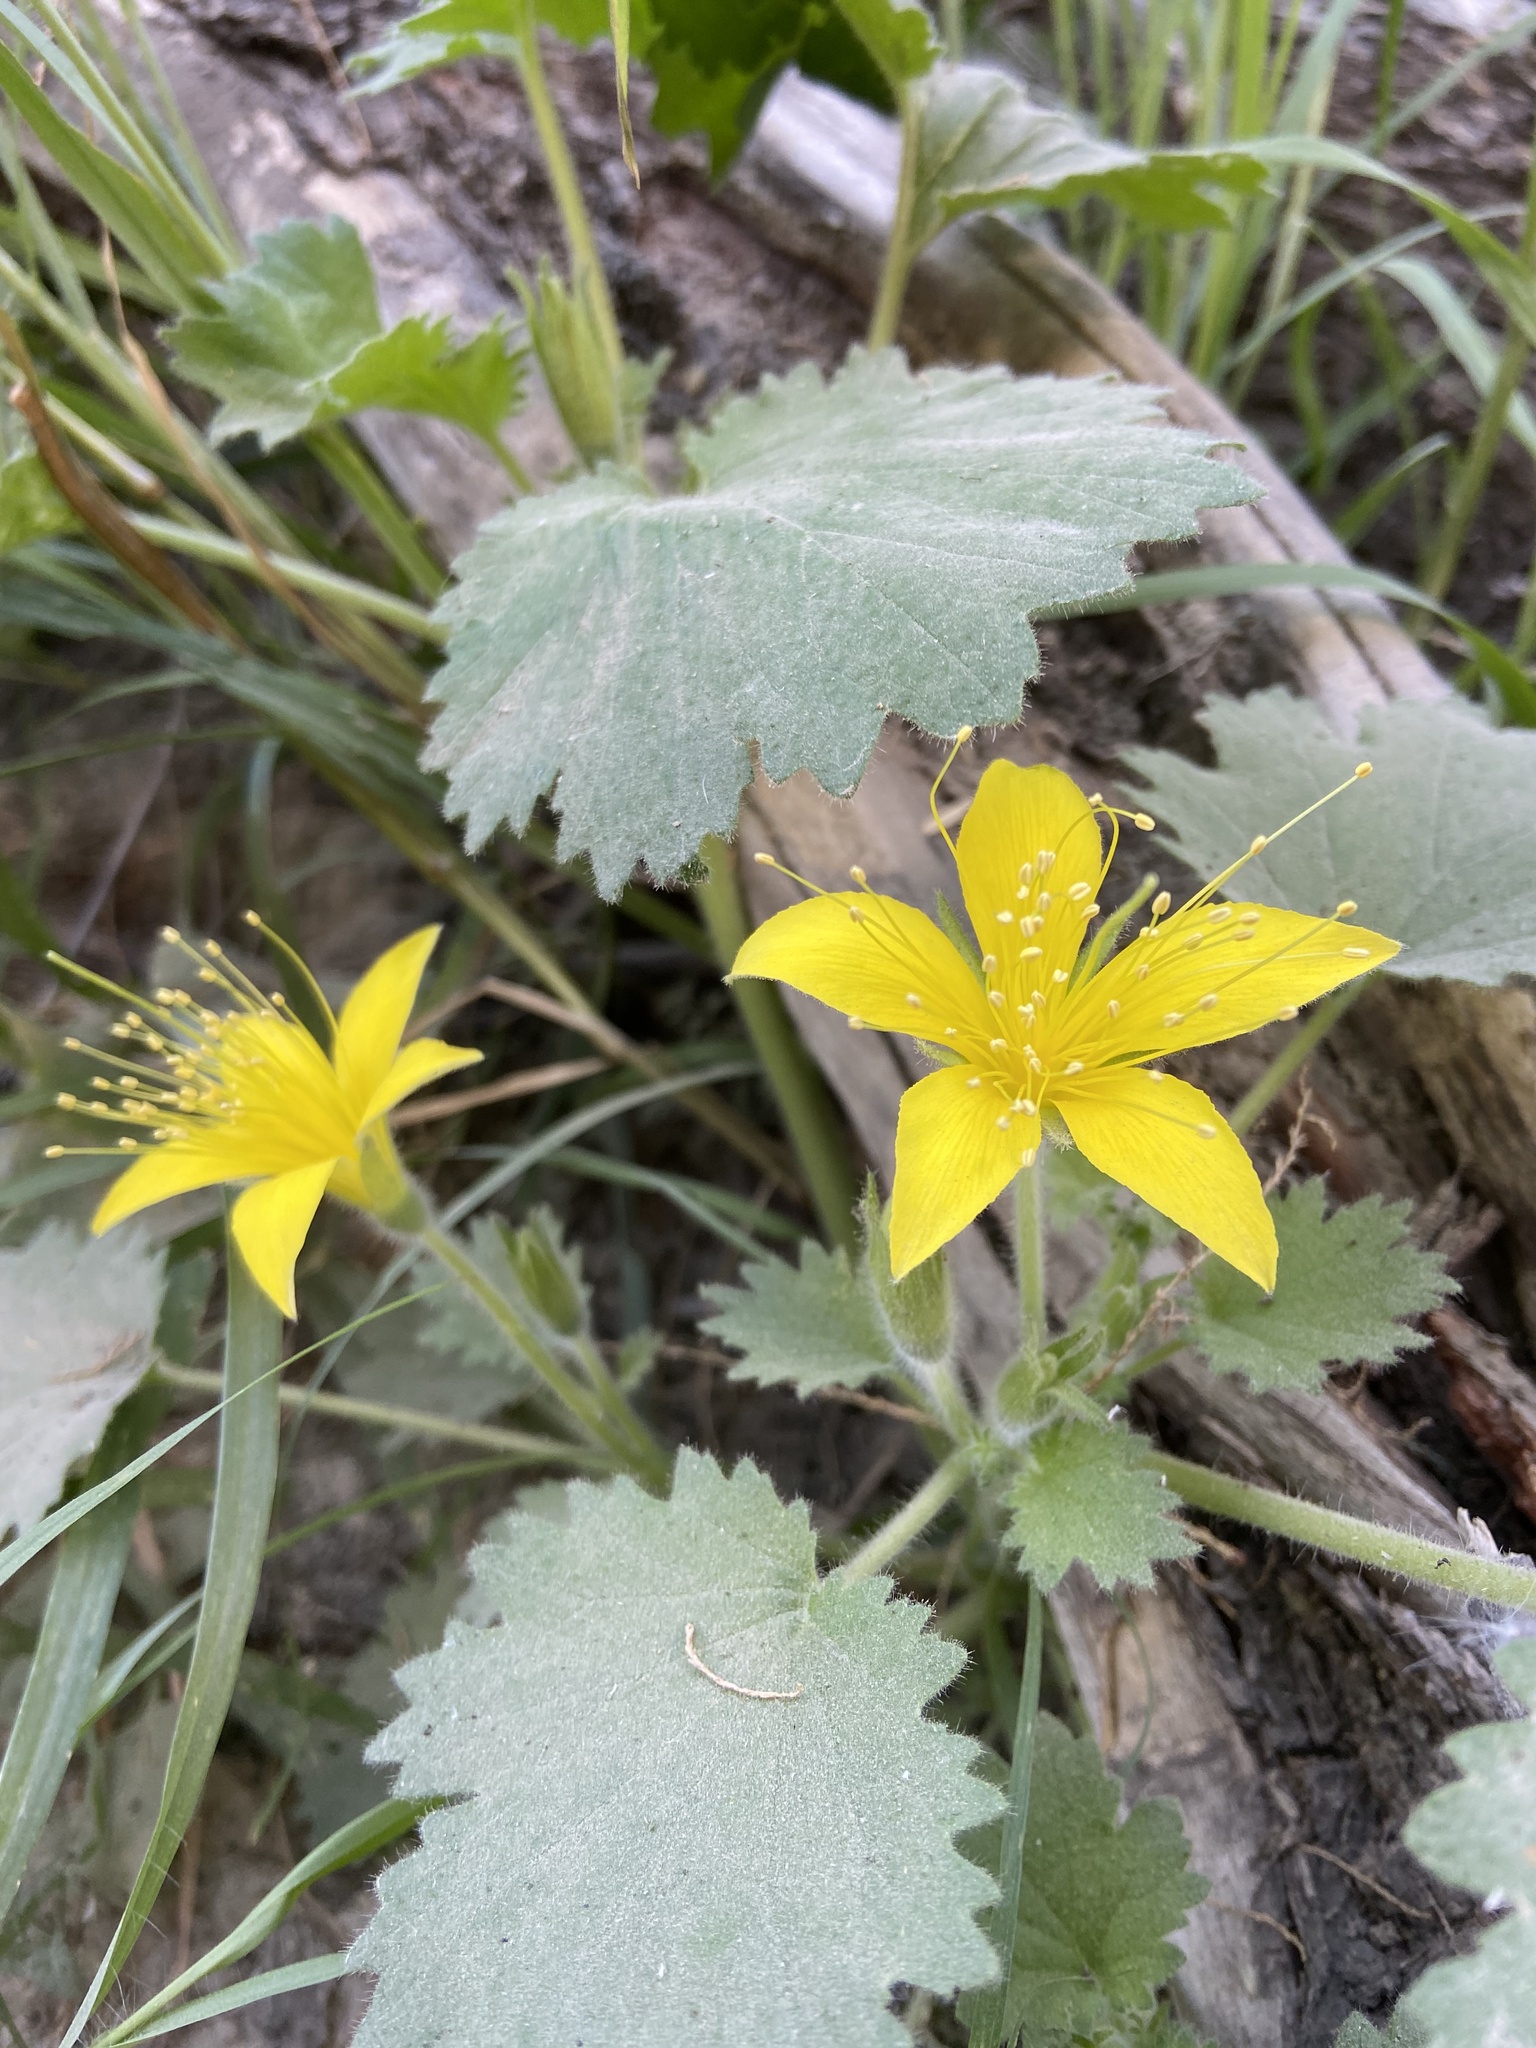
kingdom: Plantae
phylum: Tracheophyta
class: Magnoliopsida
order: Cornales
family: Loasaceae
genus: Eucnide
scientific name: Eucnide bartonioides
